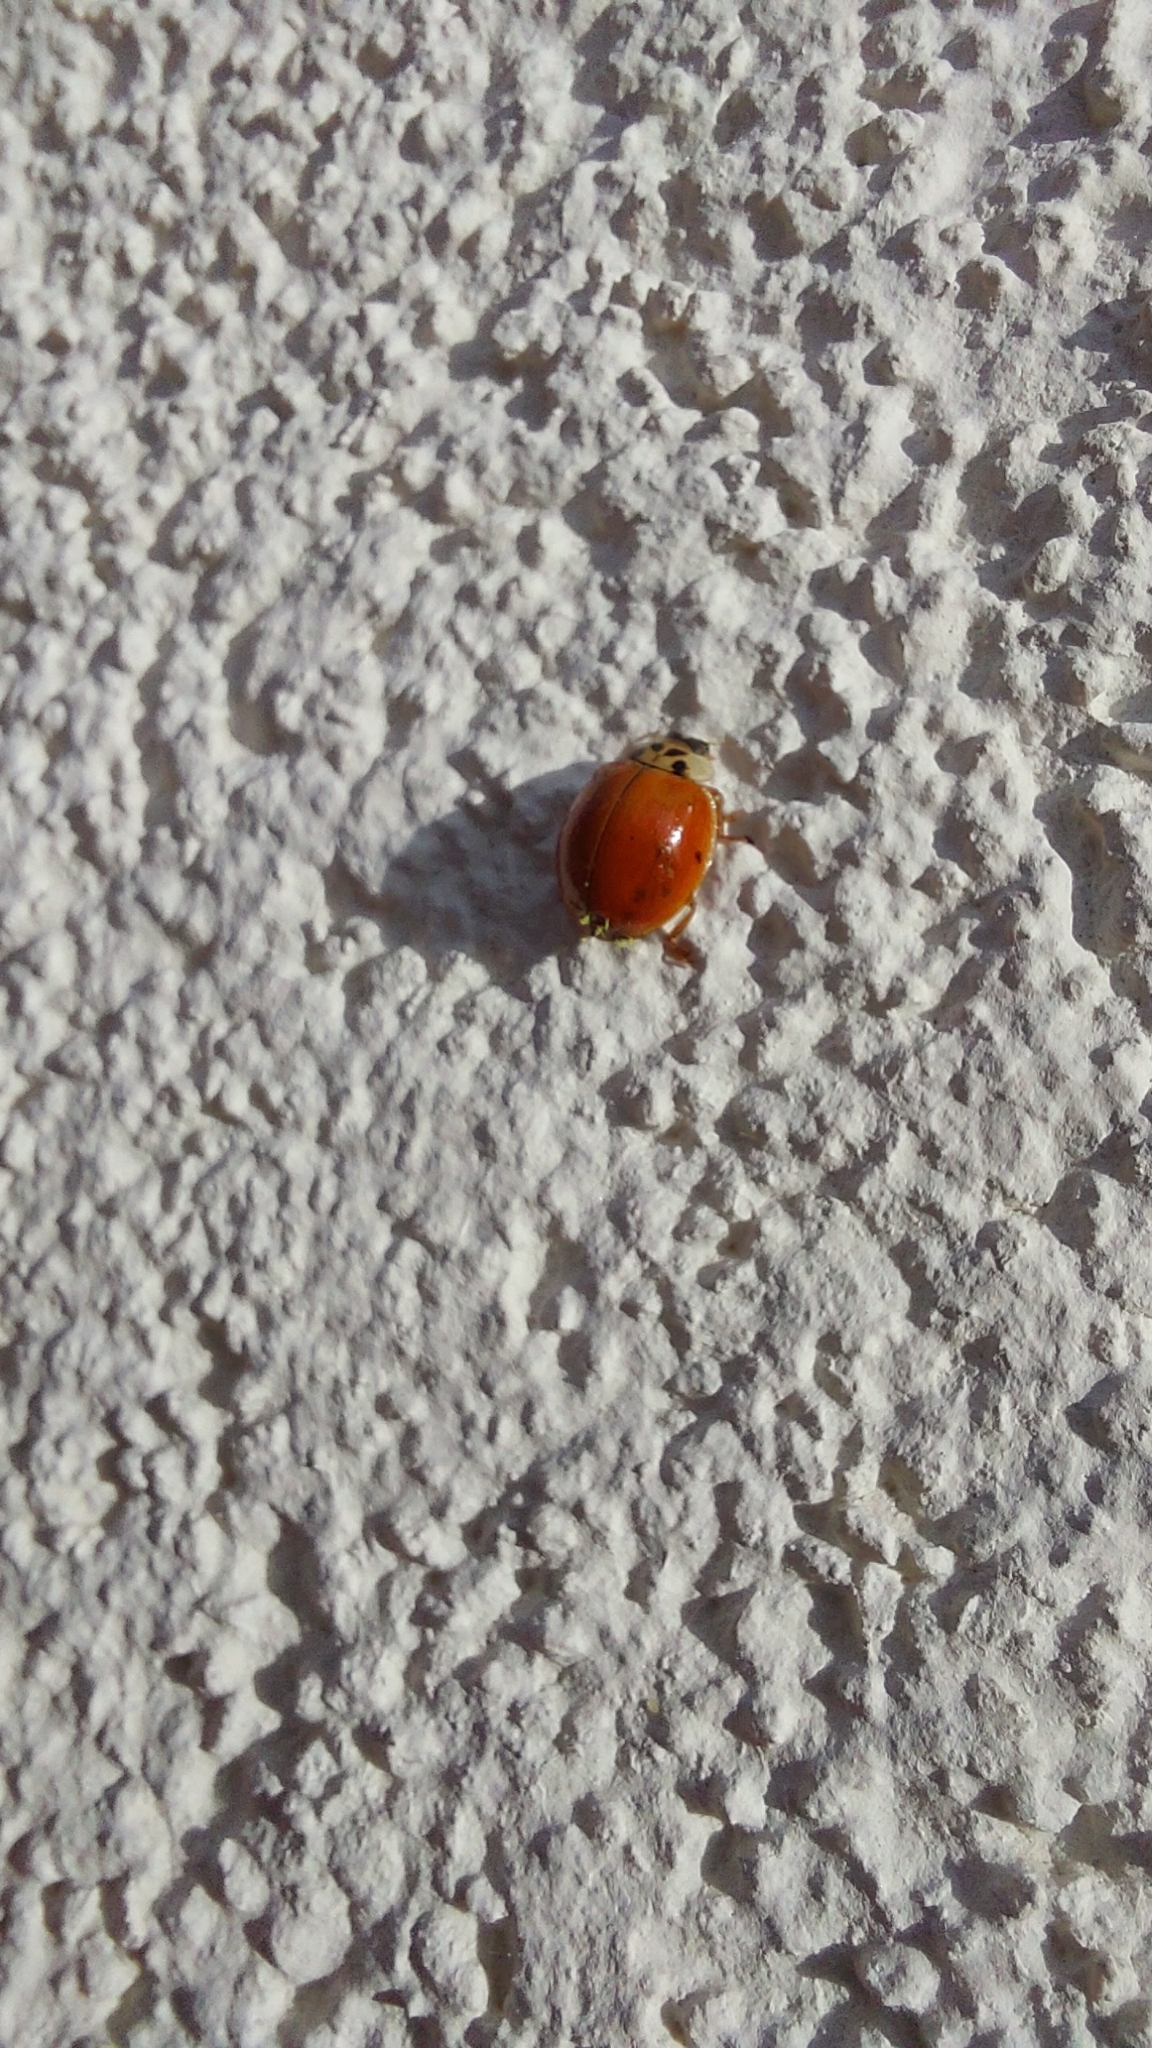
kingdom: Animalia
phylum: Arthropoda
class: Insecta
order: Coleoptera
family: Coccinellidae
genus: Harmonia
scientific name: Harmonia axyridis
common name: Harlequin ladybird
